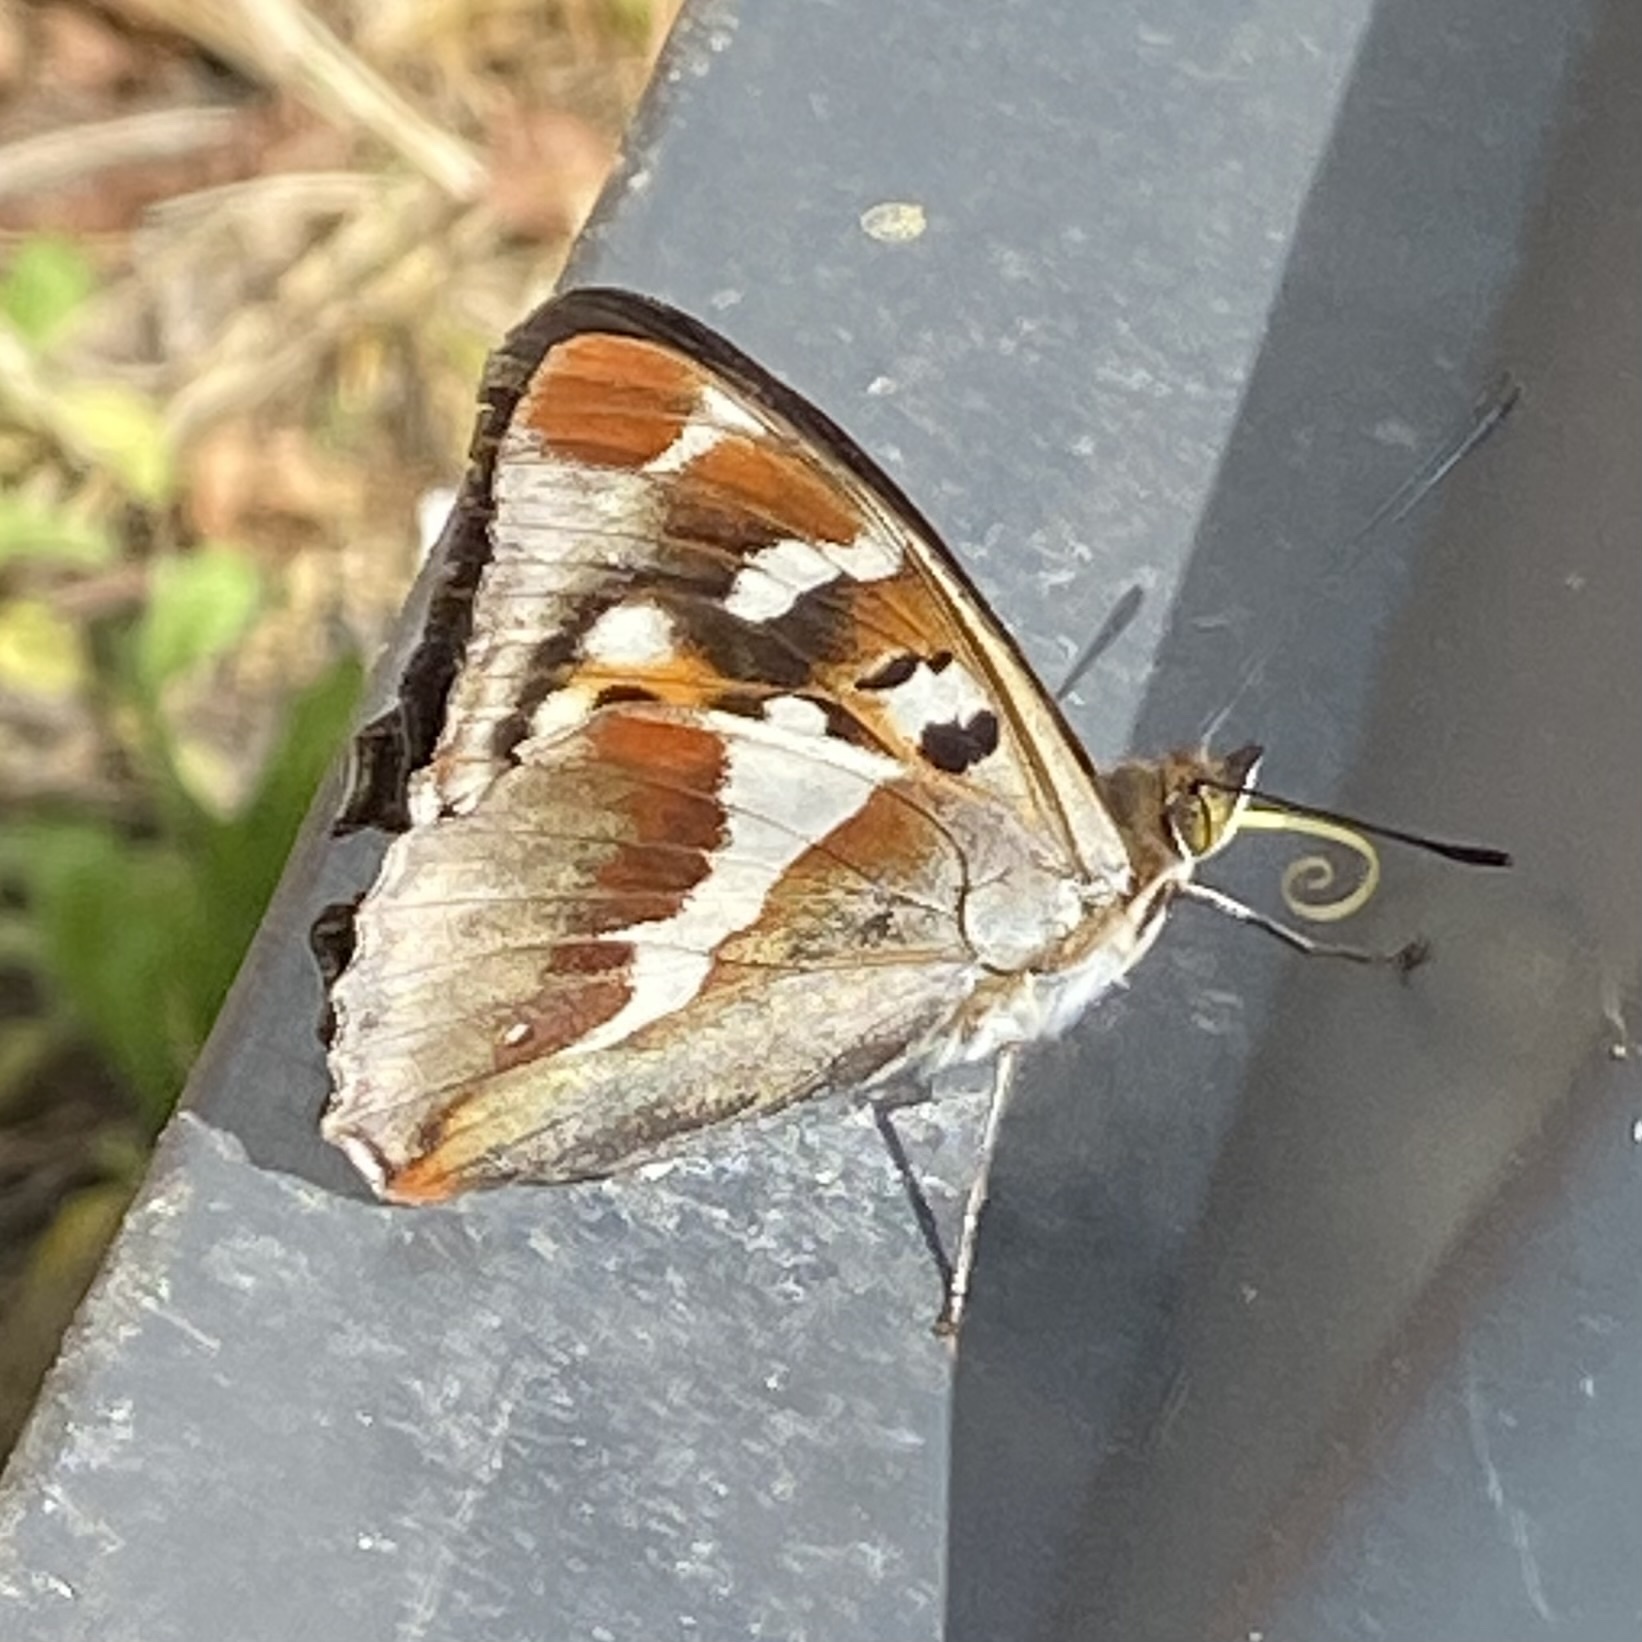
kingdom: Animalia
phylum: Arthropoda
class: Insecta
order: Lepidoptera
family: Nymphalidae
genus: Apatura
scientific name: Apatura iris
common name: Purple emperor
